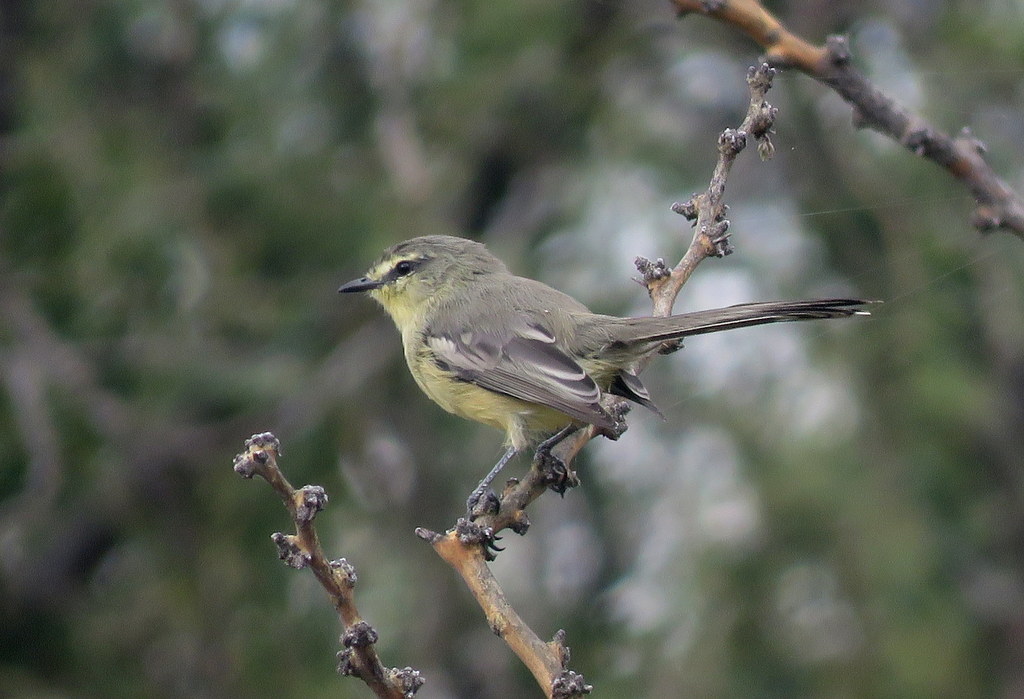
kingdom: Animalia
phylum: Chordata
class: Aves
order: Passeriformes
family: Tyrannidae
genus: Stigmatura
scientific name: Stigmatura budytoides
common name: Greater wagtail-tyrant
